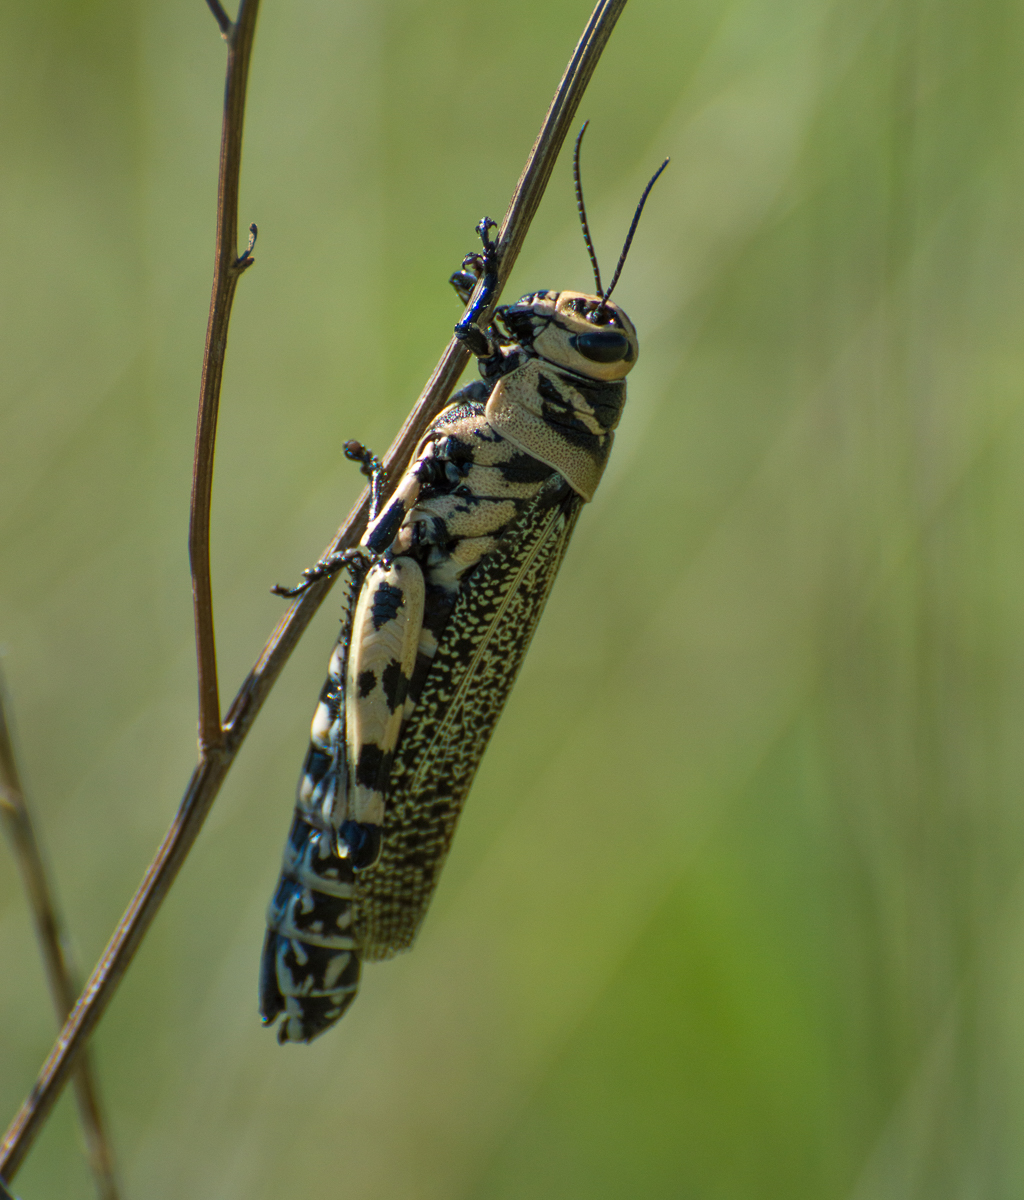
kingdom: Animalia
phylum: Arthropoda
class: Insecta
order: Orthoptera
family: Romaleidae
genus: Diponthus
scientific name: Diponthus argentinus
